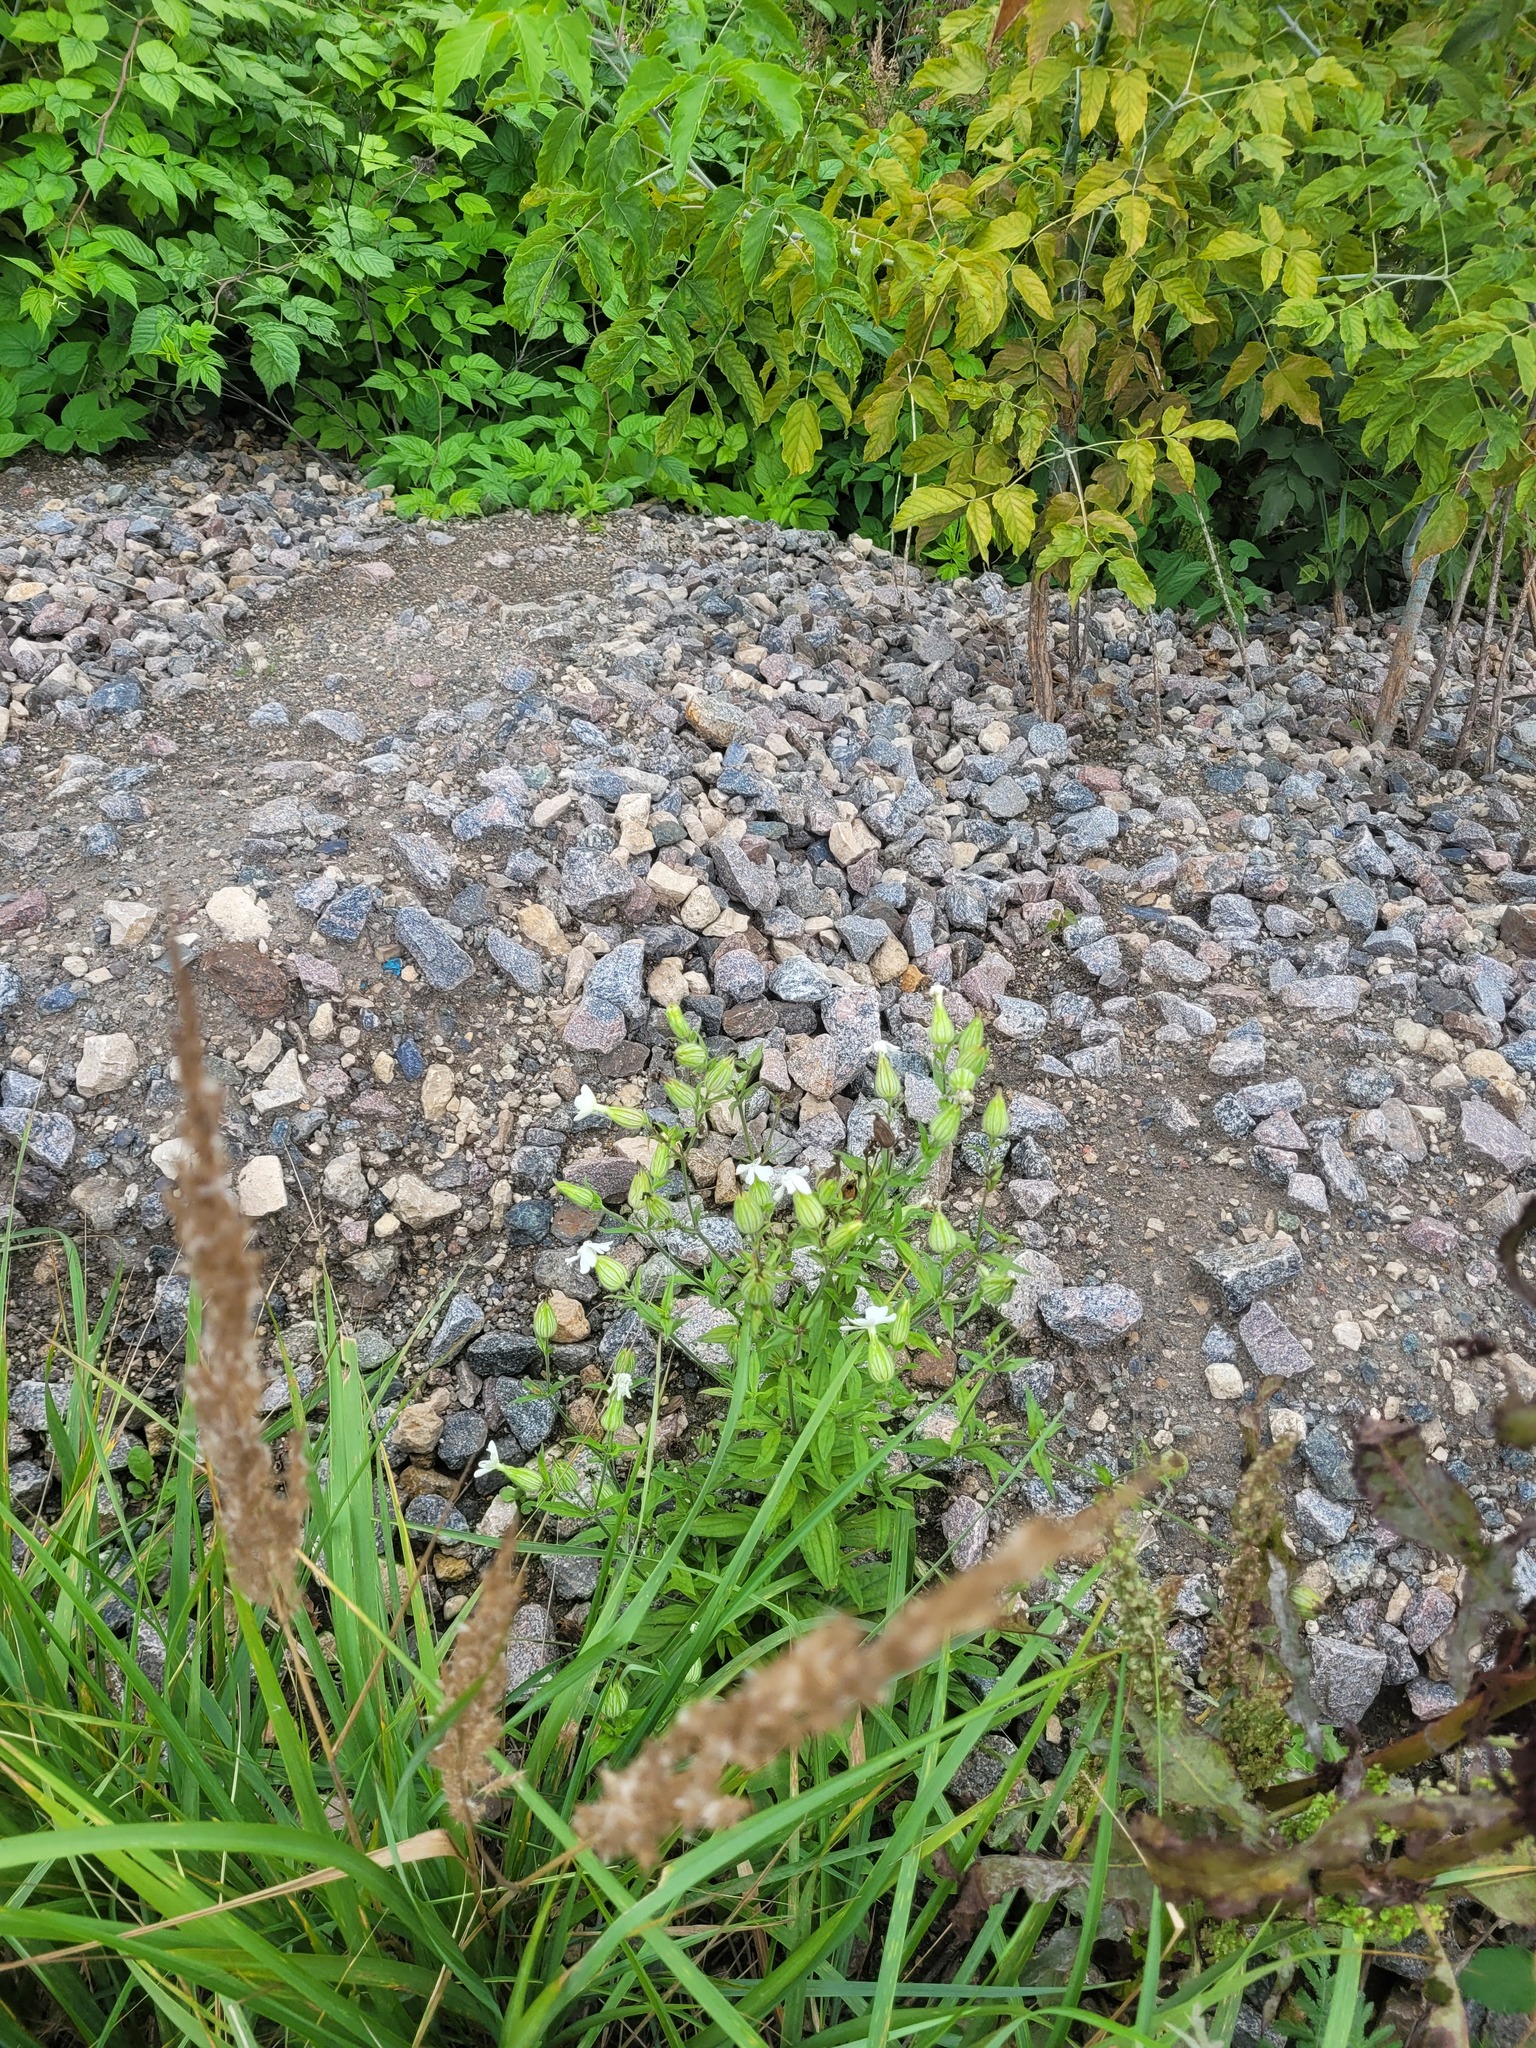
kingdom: Plantae
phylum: Tracheophyta
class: Magnoliopsida
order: Caryophyllales
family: Caryophyllaceae
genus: Silene
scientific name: Silene latifolia
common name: White campion
